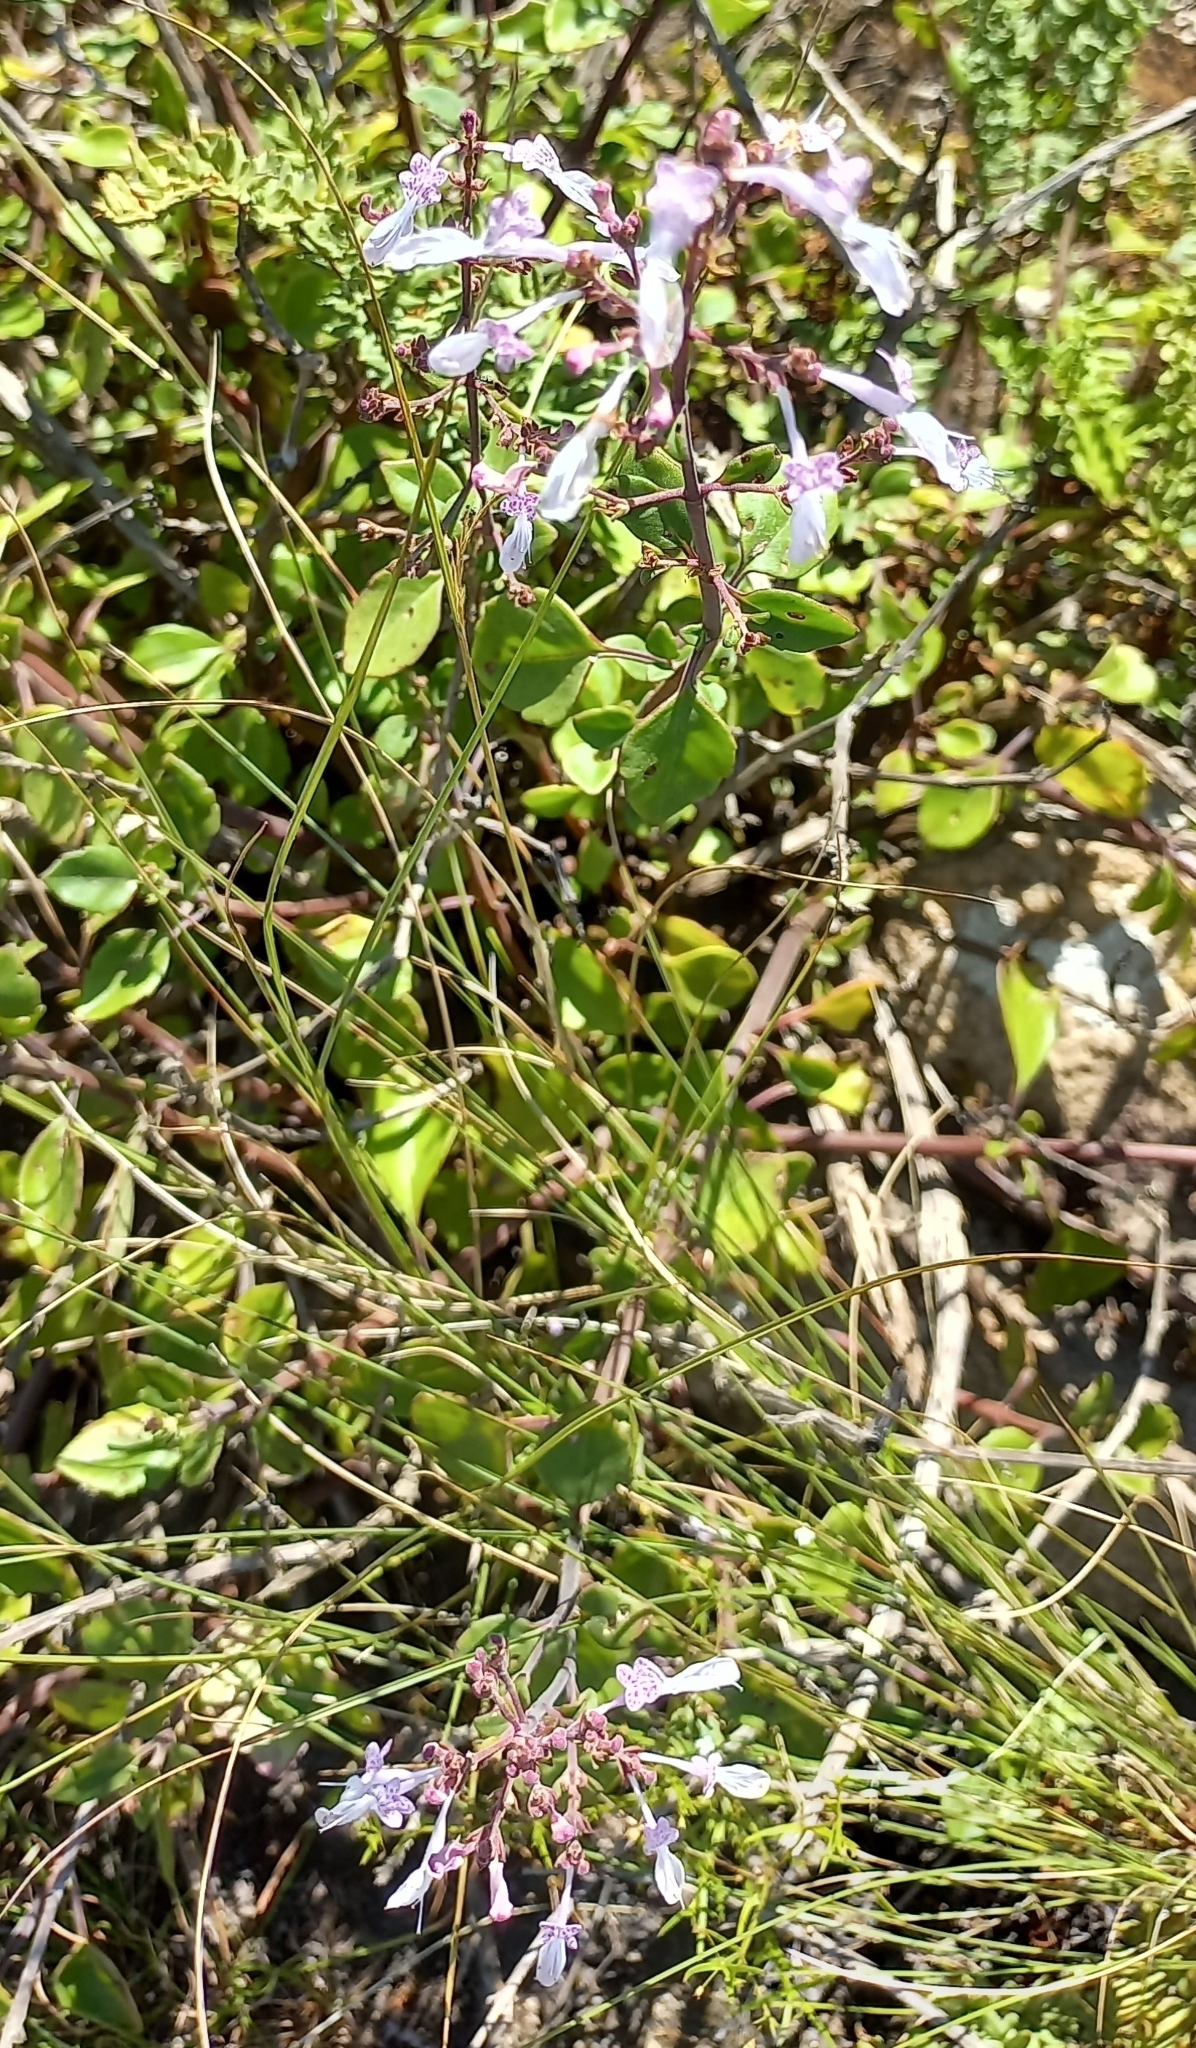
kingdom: Plantae
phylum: Tracheophyta
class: Magnoliopsida
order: Lamiales
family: Lamiaceae
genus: Aeollanthus
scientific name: Aeollanthus parvifolius
